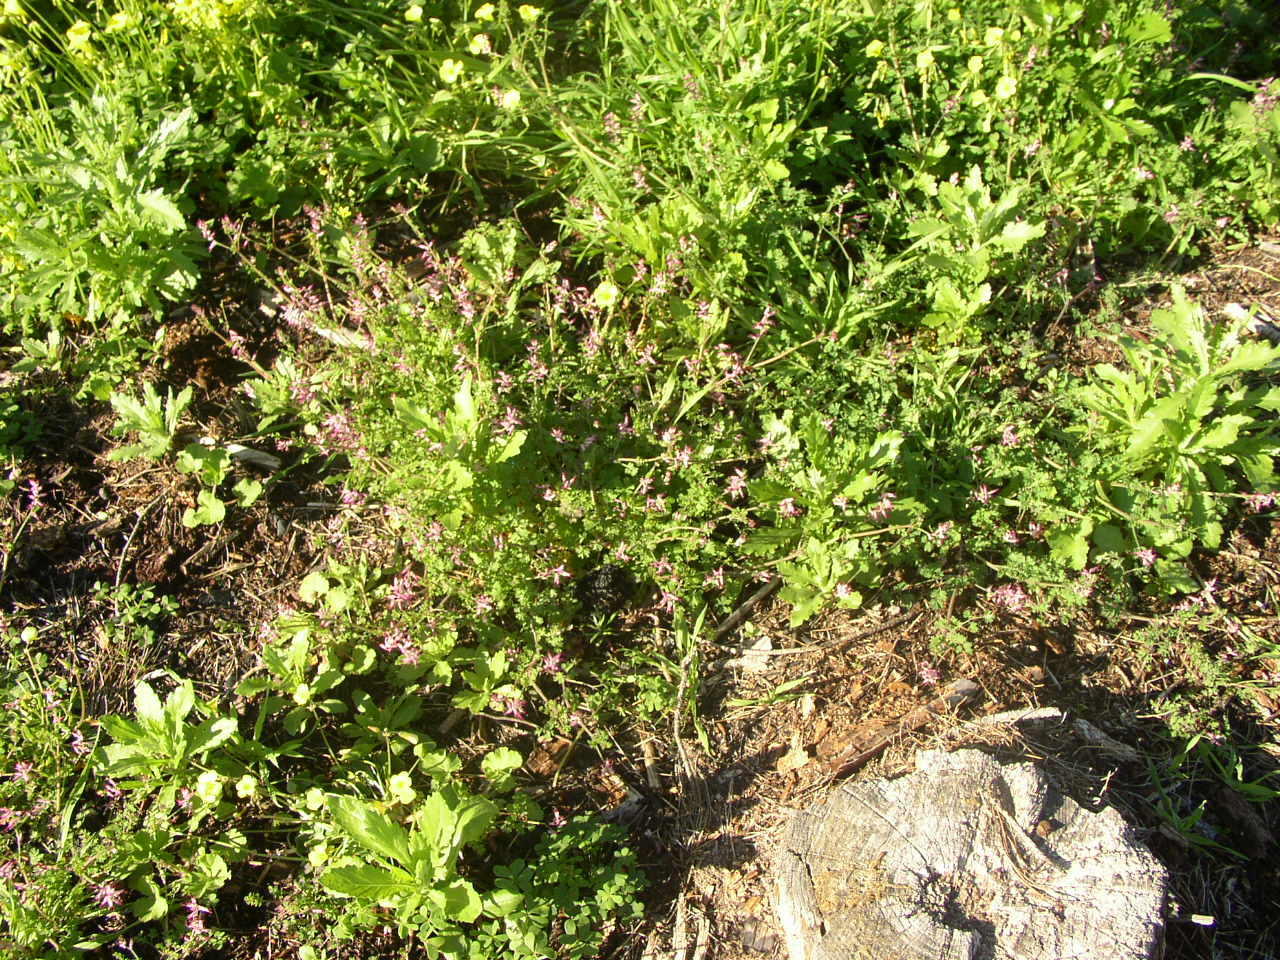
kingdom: Plantae
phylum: Tracheophyta
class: Magnoliopsida
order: Ranunculales
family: Papaveraceae
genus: Fumaria
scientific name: Fumaria muralis
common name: Common ramping-fumitory
